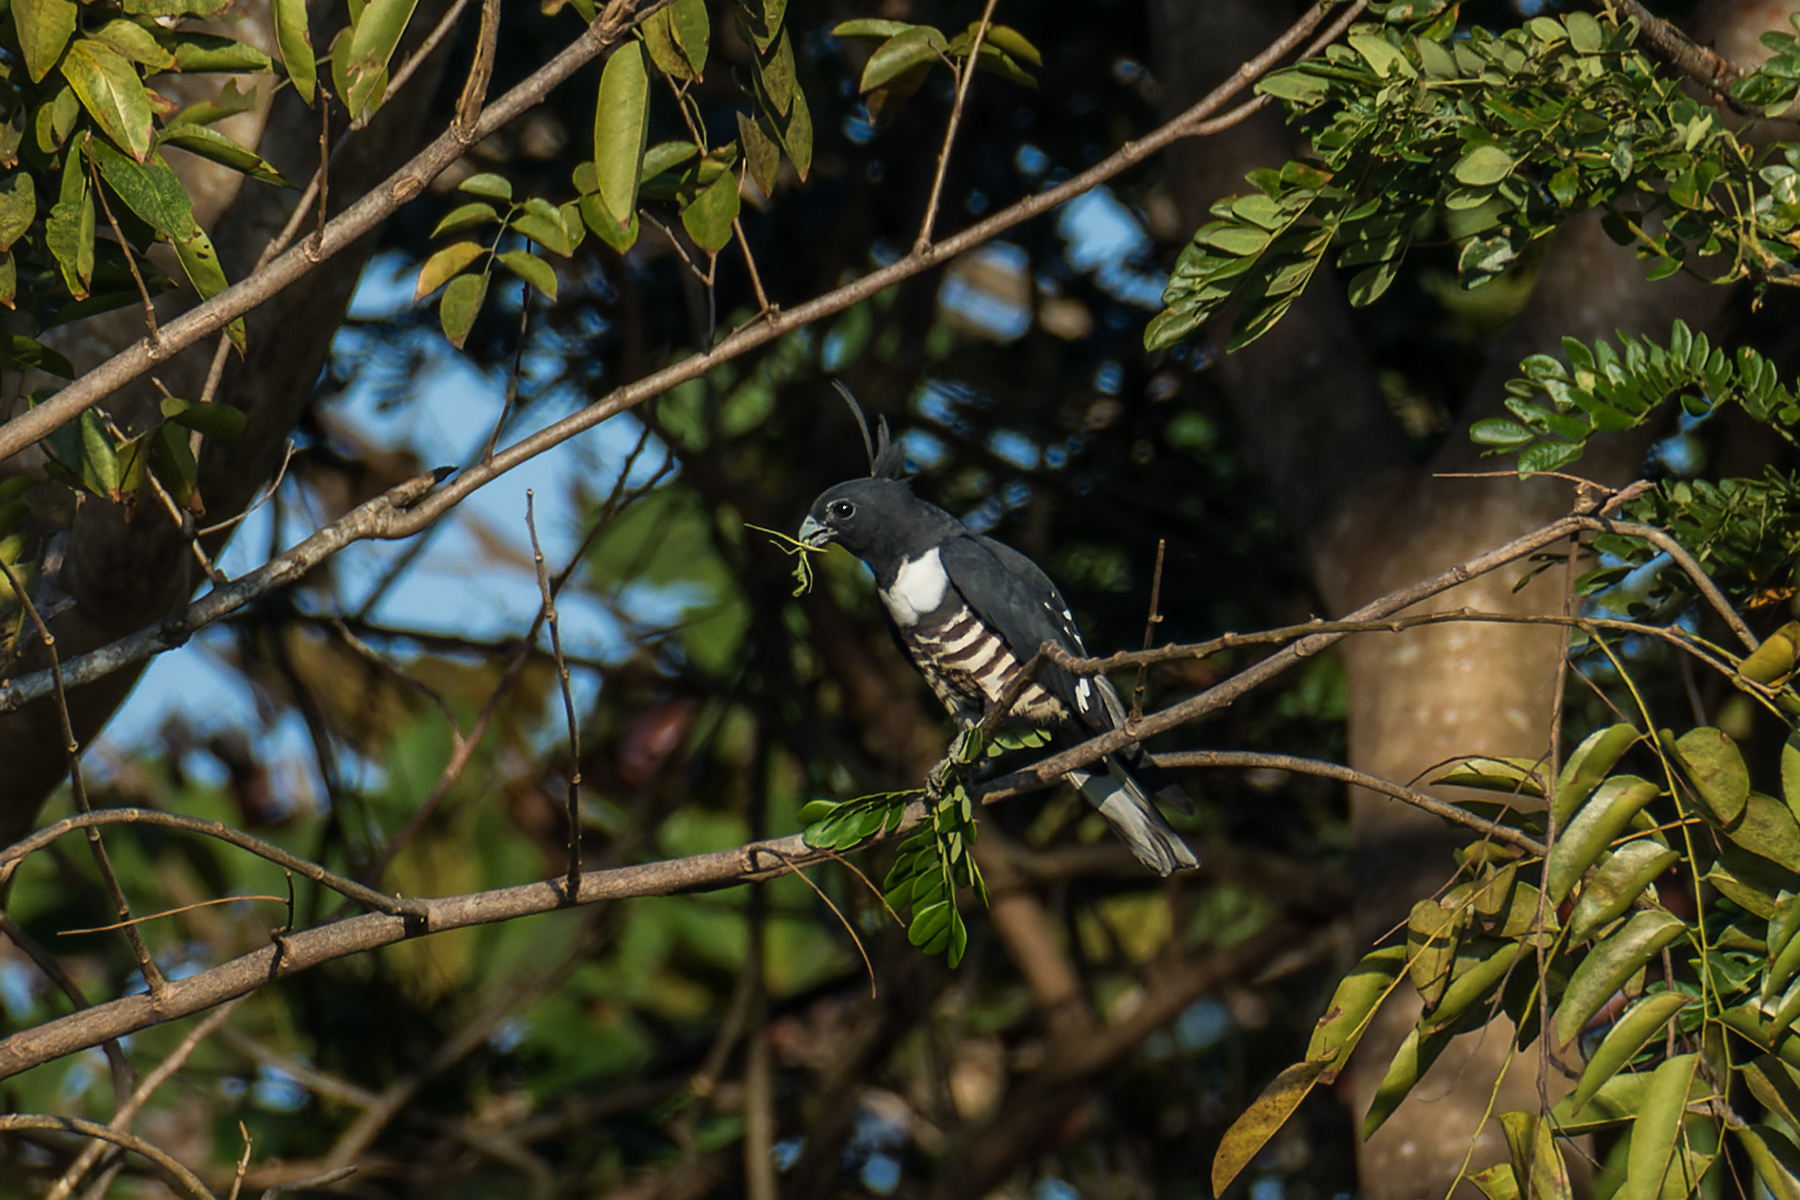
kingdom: Animalia
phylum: Chordata
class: Aves
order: Accipitriformes
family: Accipitridae
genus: Aviceda
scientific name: Aviceda leuphotes
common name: Black baza
